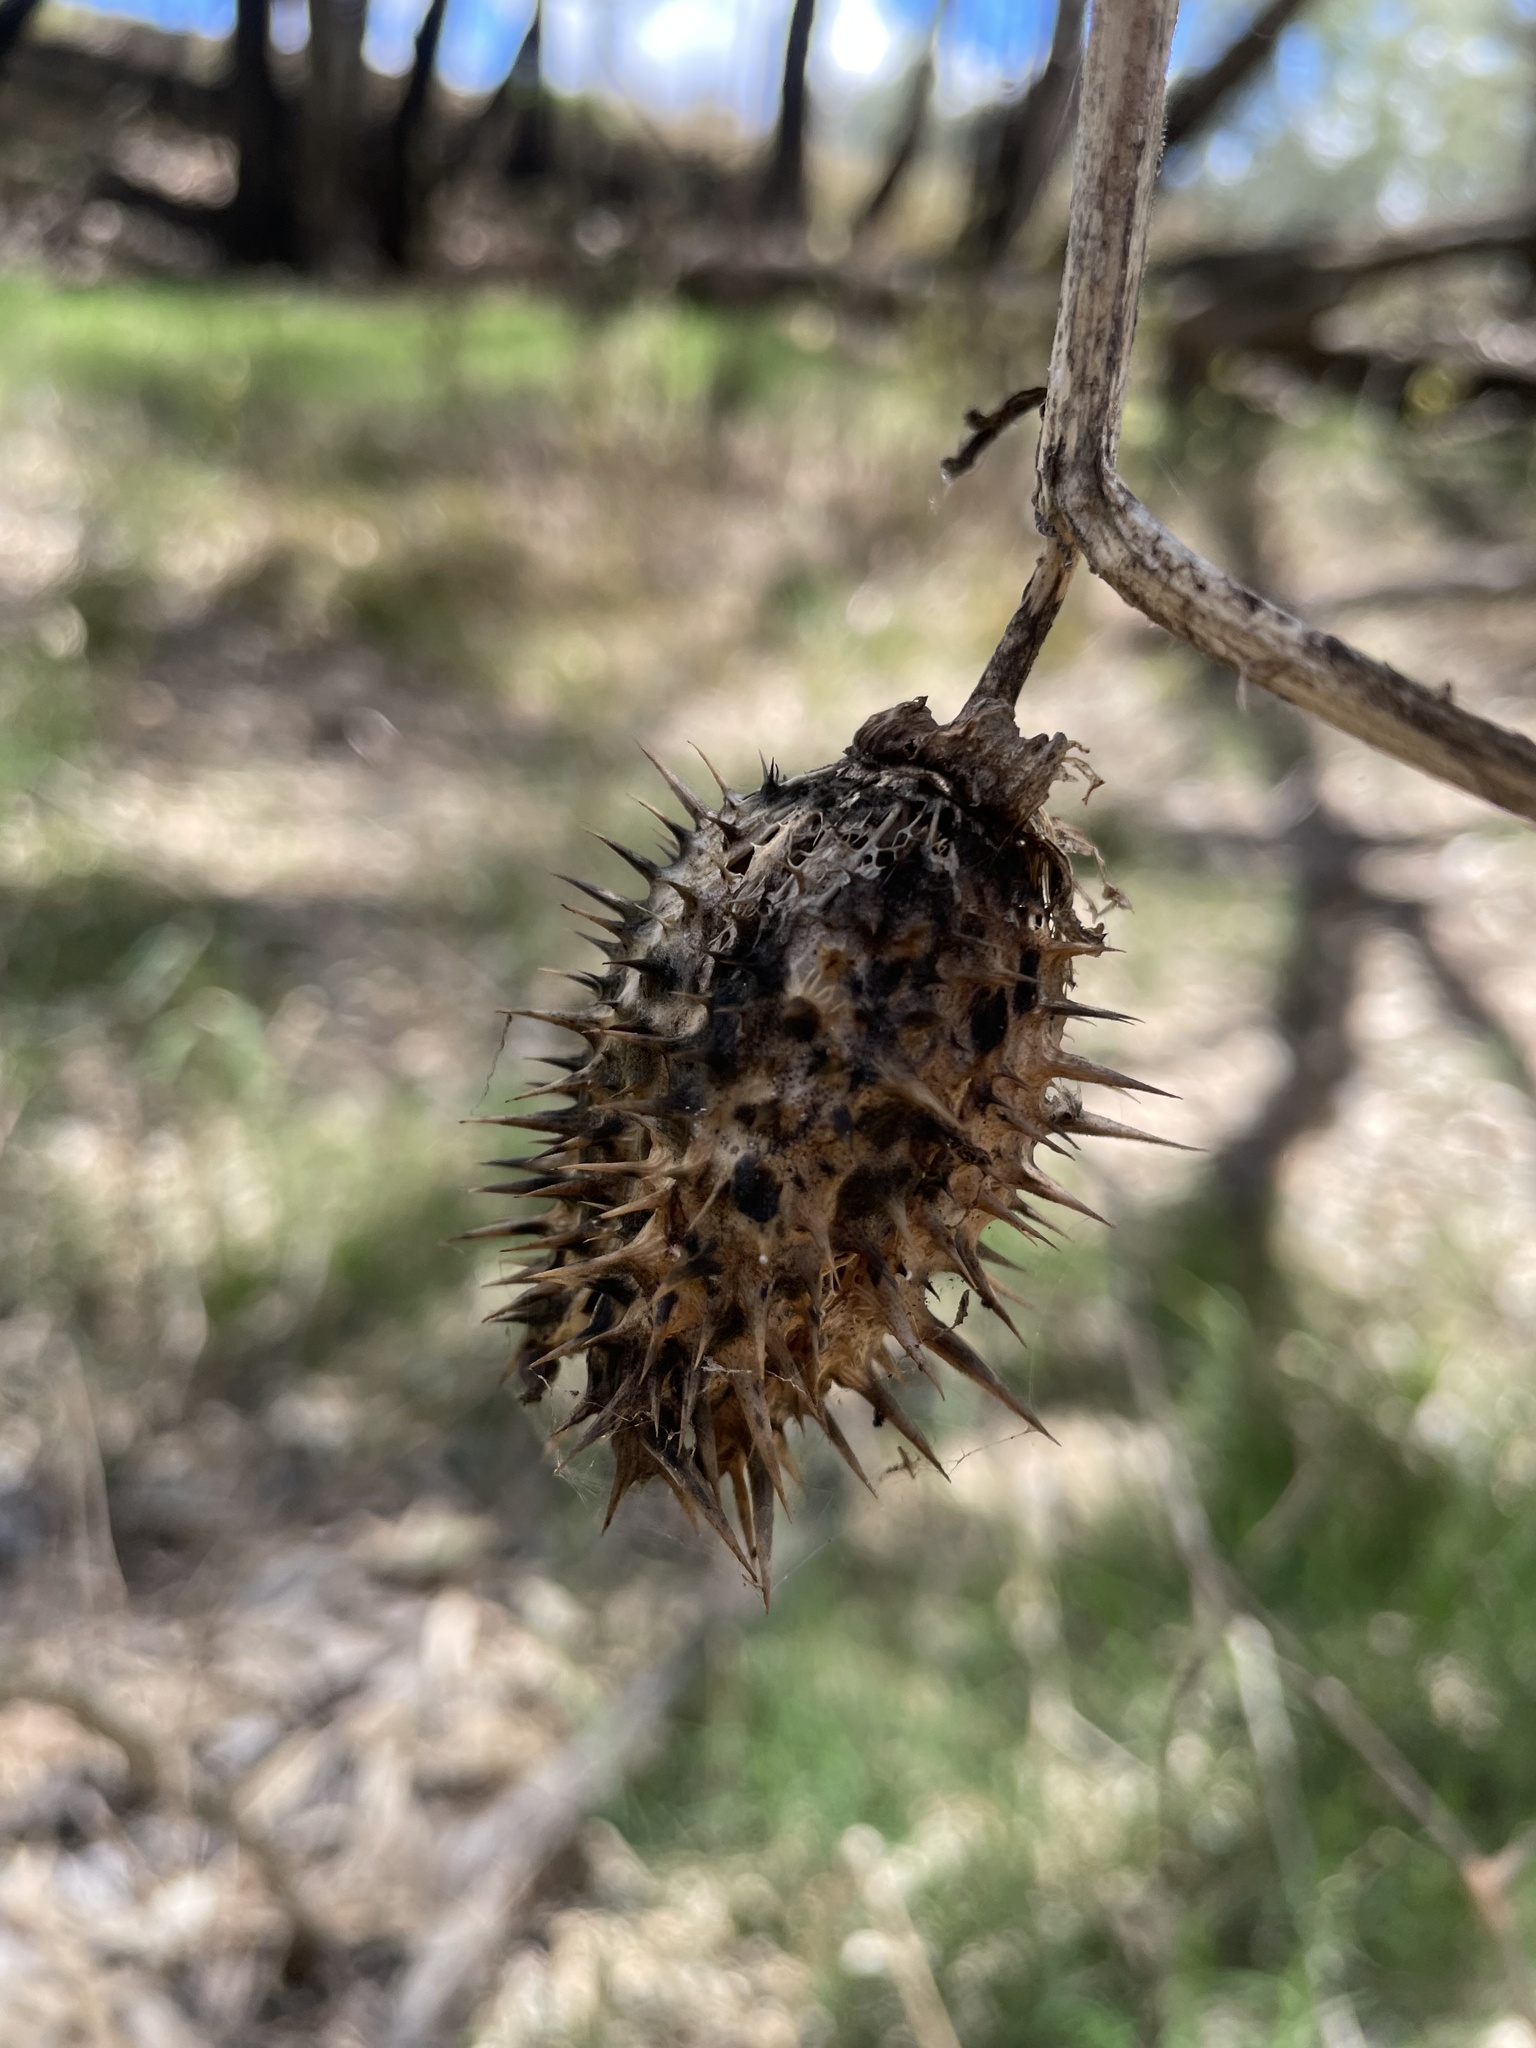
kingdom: Plantae
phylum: Tracheophyta
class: Magnoliopsida
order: Solanales
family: Solanaceae
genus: Datura
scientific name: Datura stramonium
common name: Thorn-apple
